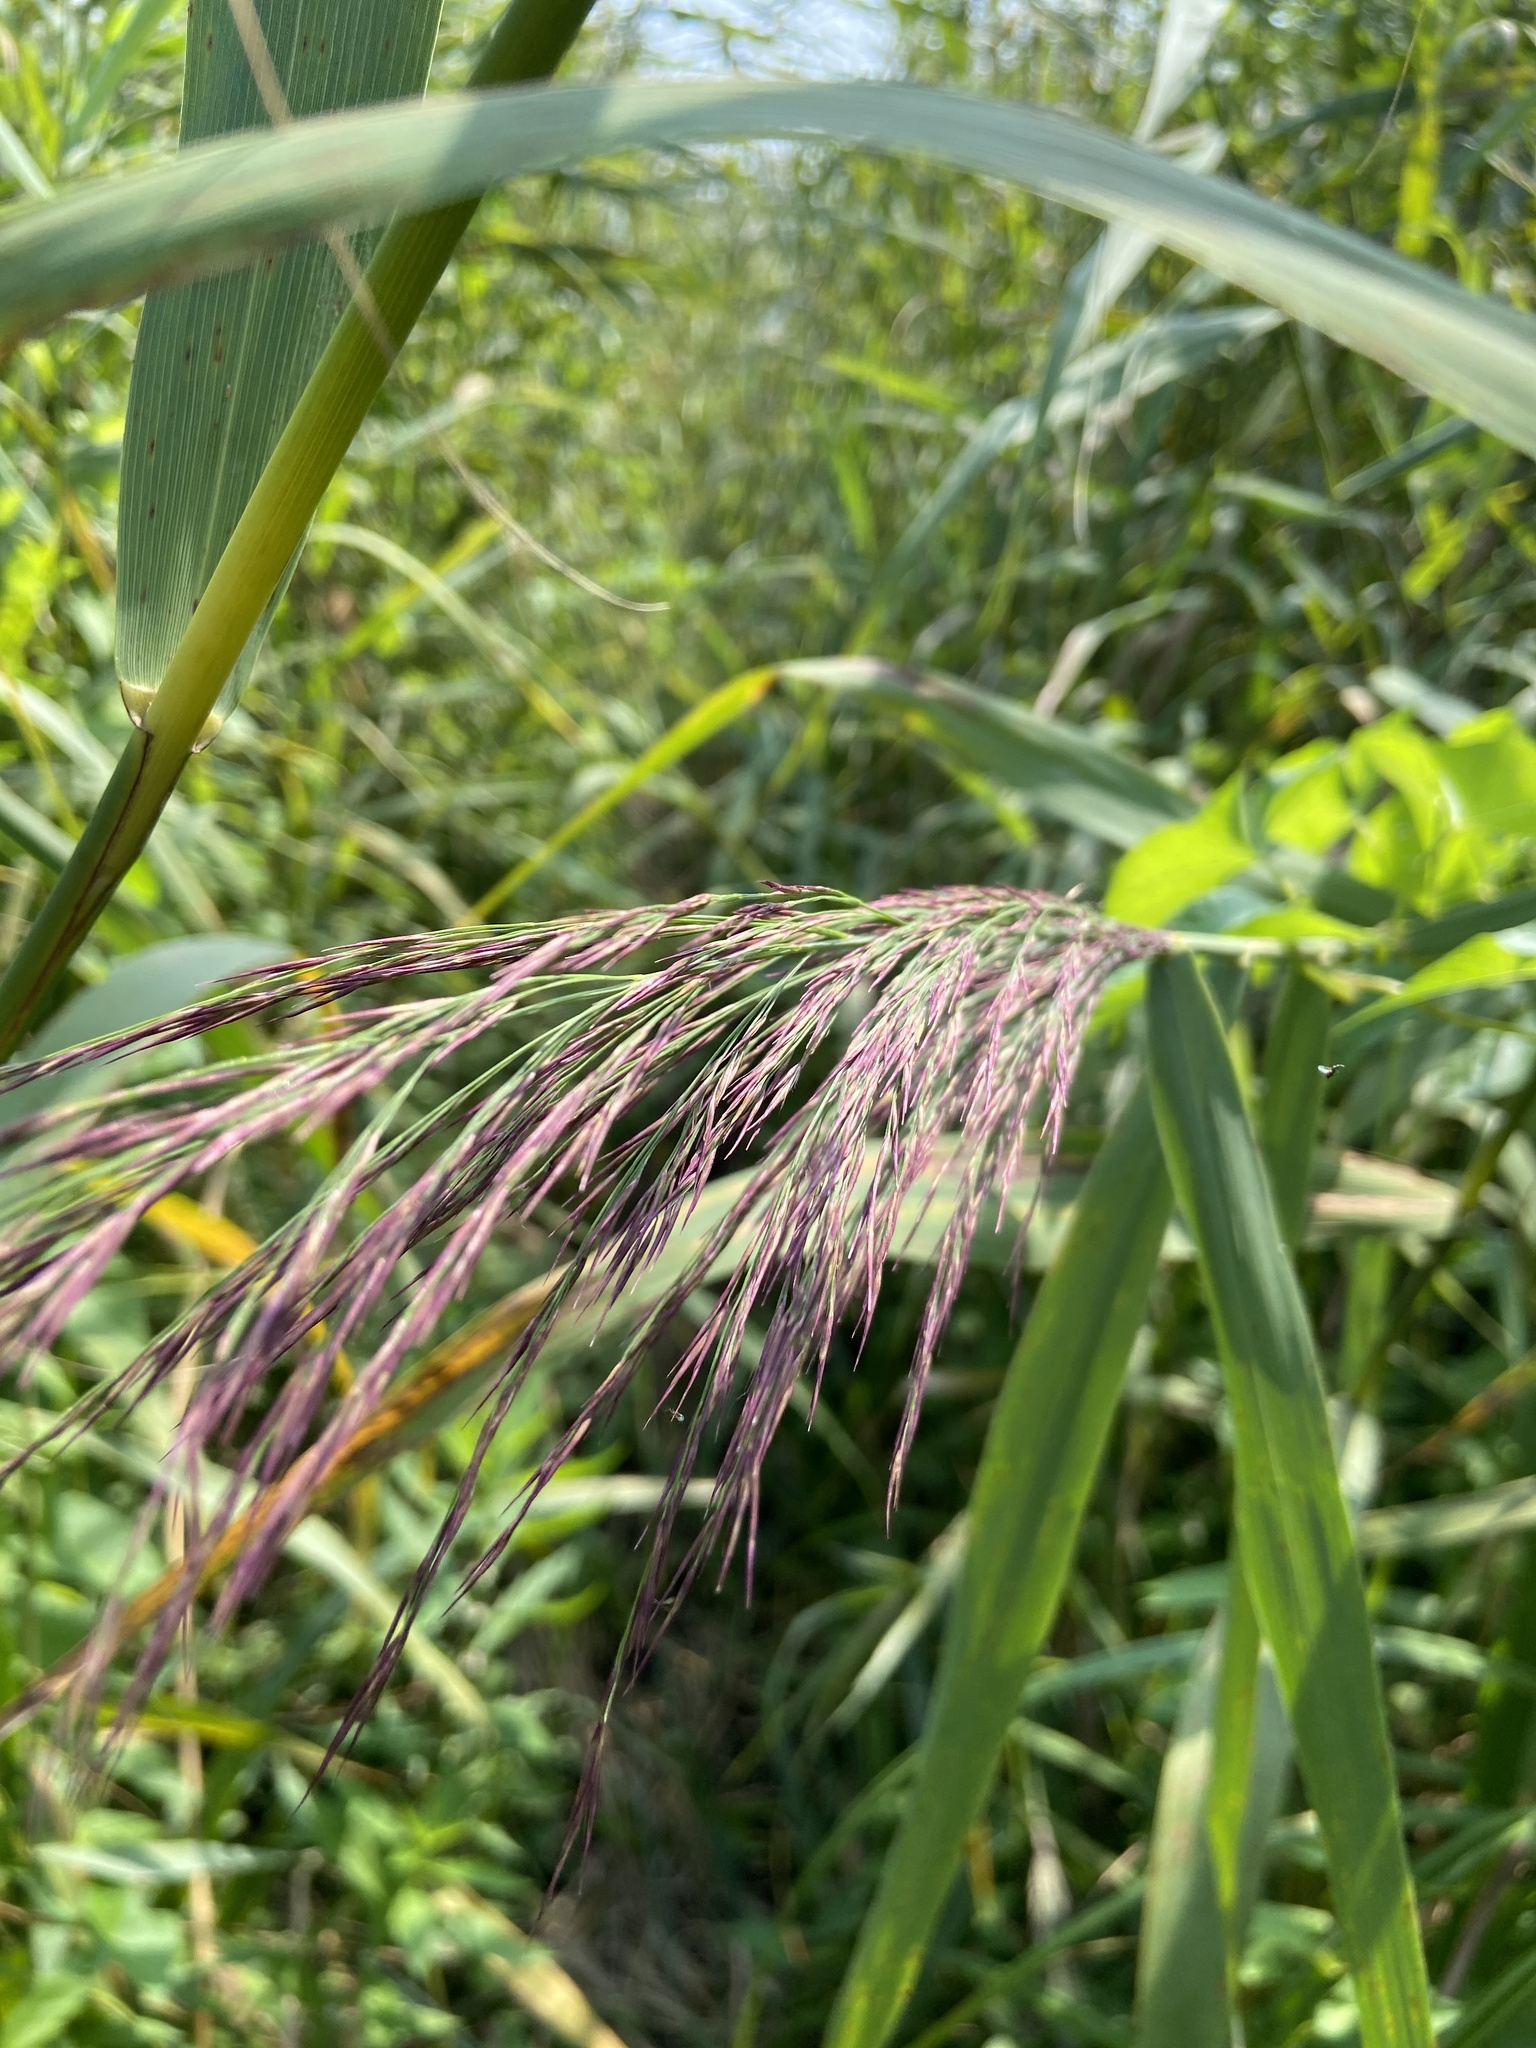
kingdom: Plantae
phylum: Tracheophyta
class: Liliopsida
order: Poales
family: Poaceae
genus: Phragmites
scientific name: Phragmites australis
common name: Common reed
